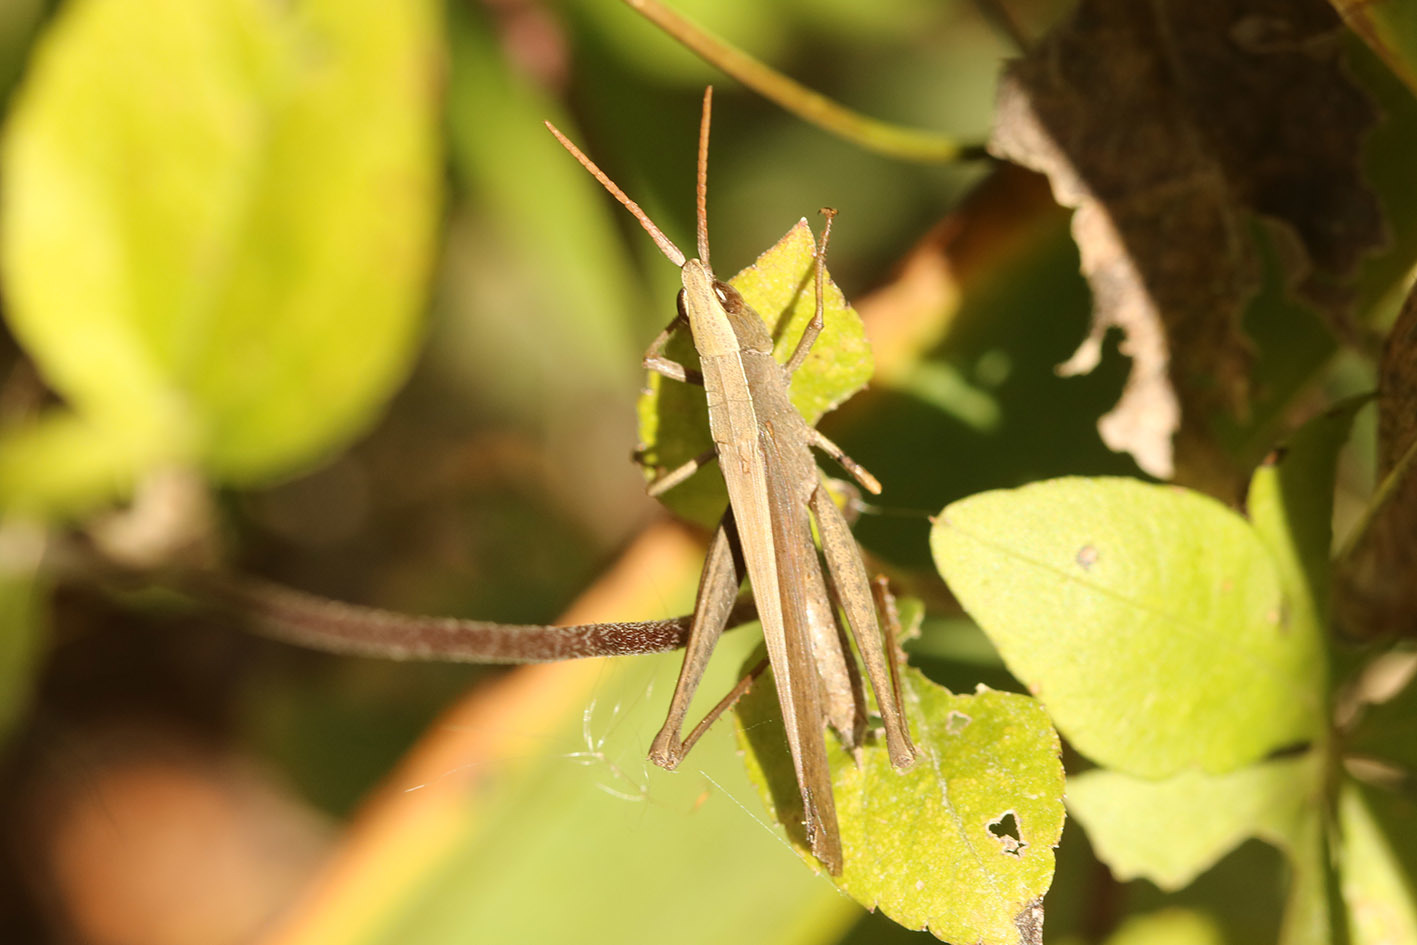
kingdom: Animalia
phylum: Arthropoda
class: Insecta
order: Orthoptera
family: Acrididae
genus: Metaleptea
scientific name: Metaleptea adspersa
